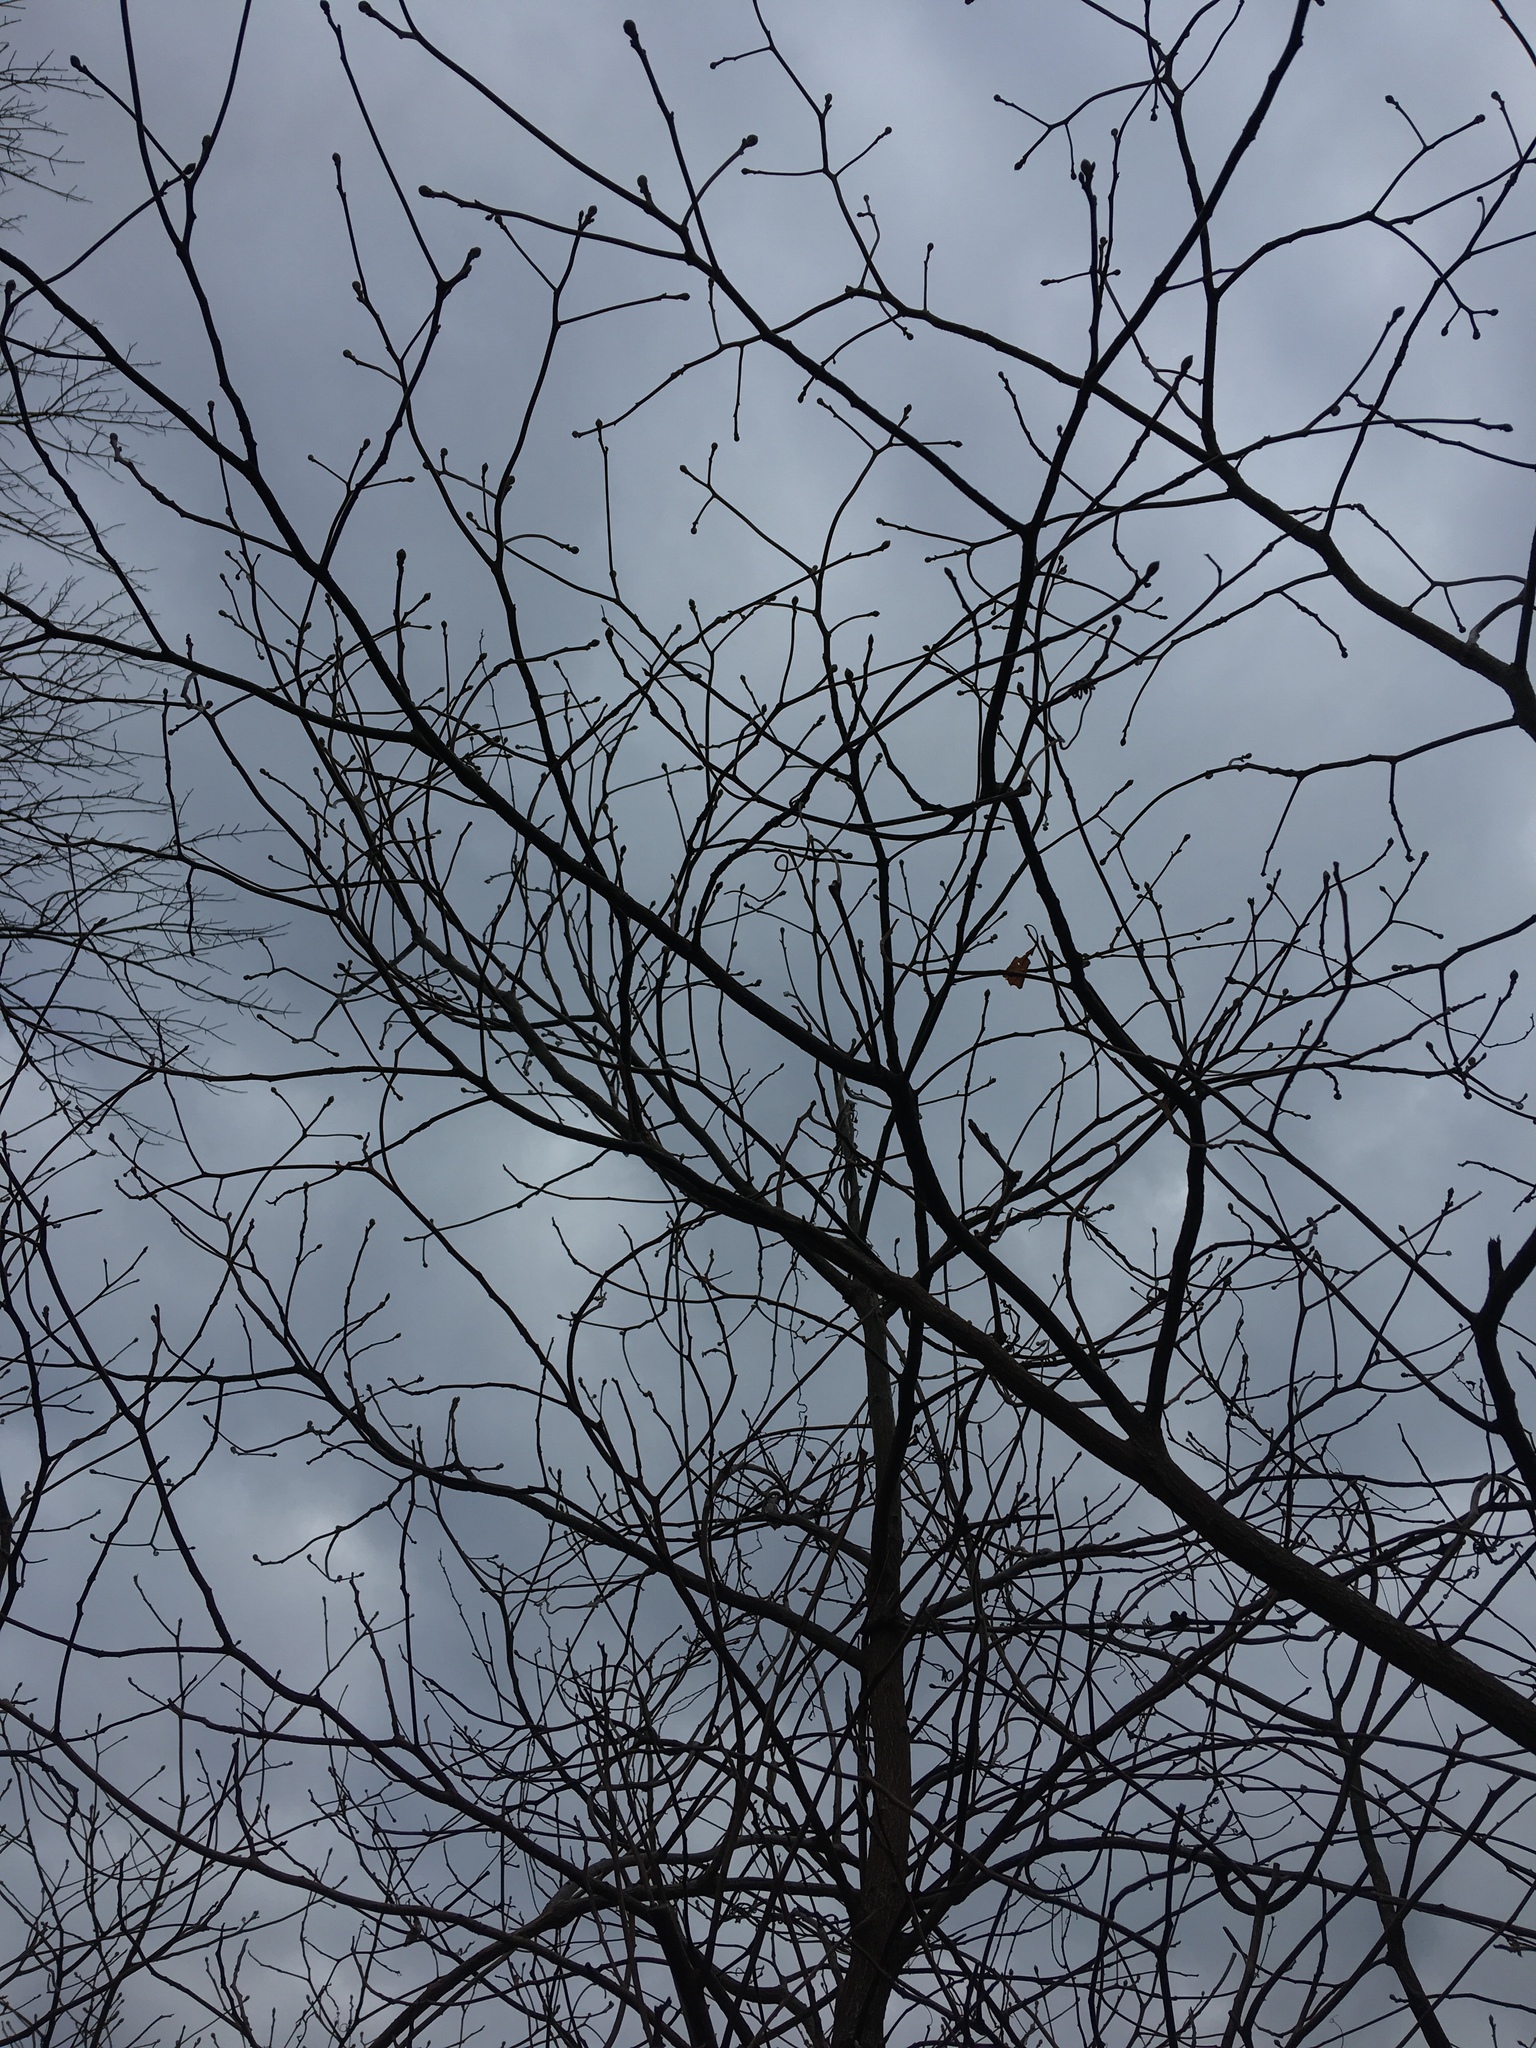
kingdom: Plantae
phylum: Tracheophyta
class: Magnoliopsida
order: Laurales
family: Lauraceae
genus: Sassafras
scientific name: Sassafras albidum
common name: Sassafras
